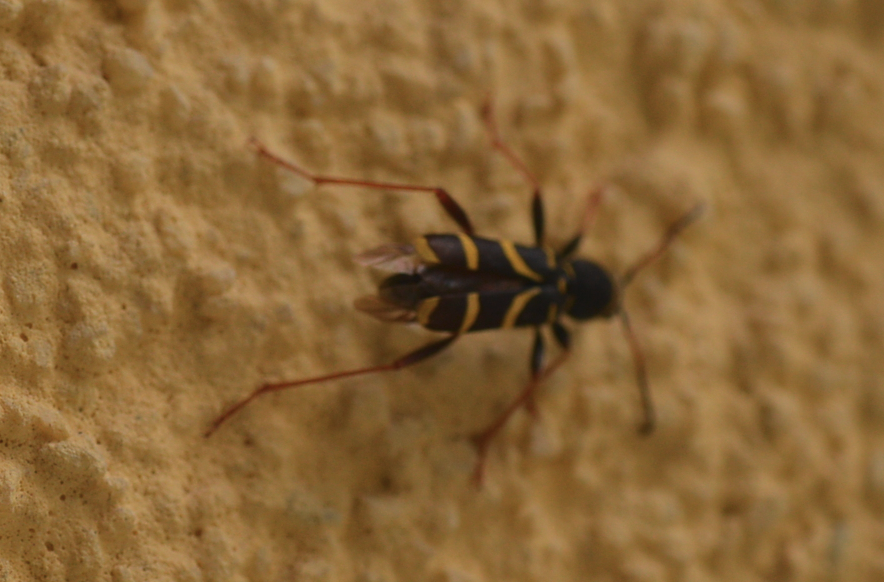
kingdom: Animalia
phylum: Arthropoda
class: Insecta
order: Coleoptera
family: Cerambycidae
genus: Clytus
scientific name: Clytus arietis
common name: Wasp beetle
